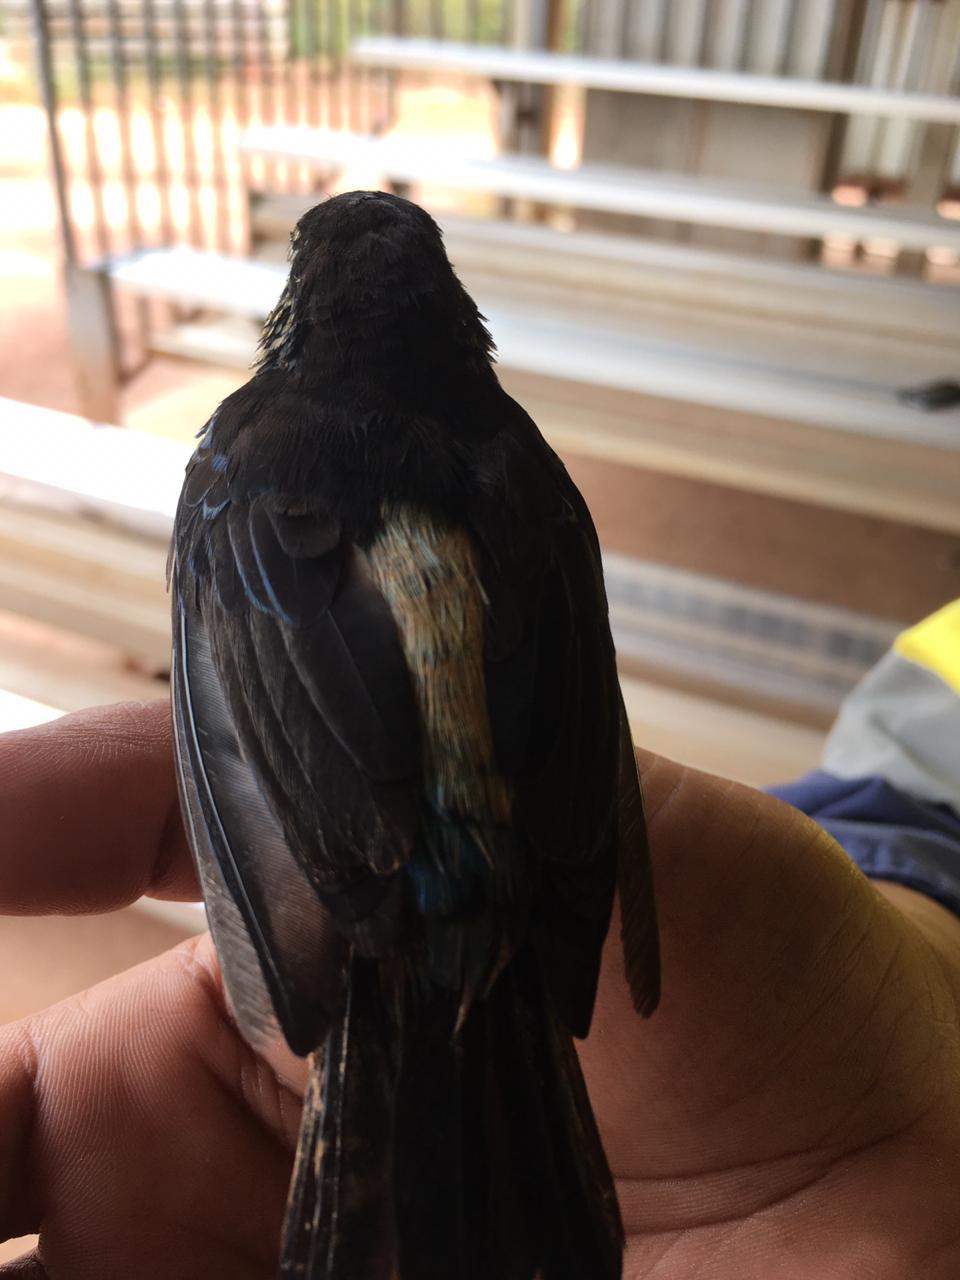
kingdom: Animalia
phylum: Chordata
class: Aves
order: Passeriformes
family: Thraupidae
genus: Tangara
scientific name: Tangara velia
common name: Opal-rumped tanager
